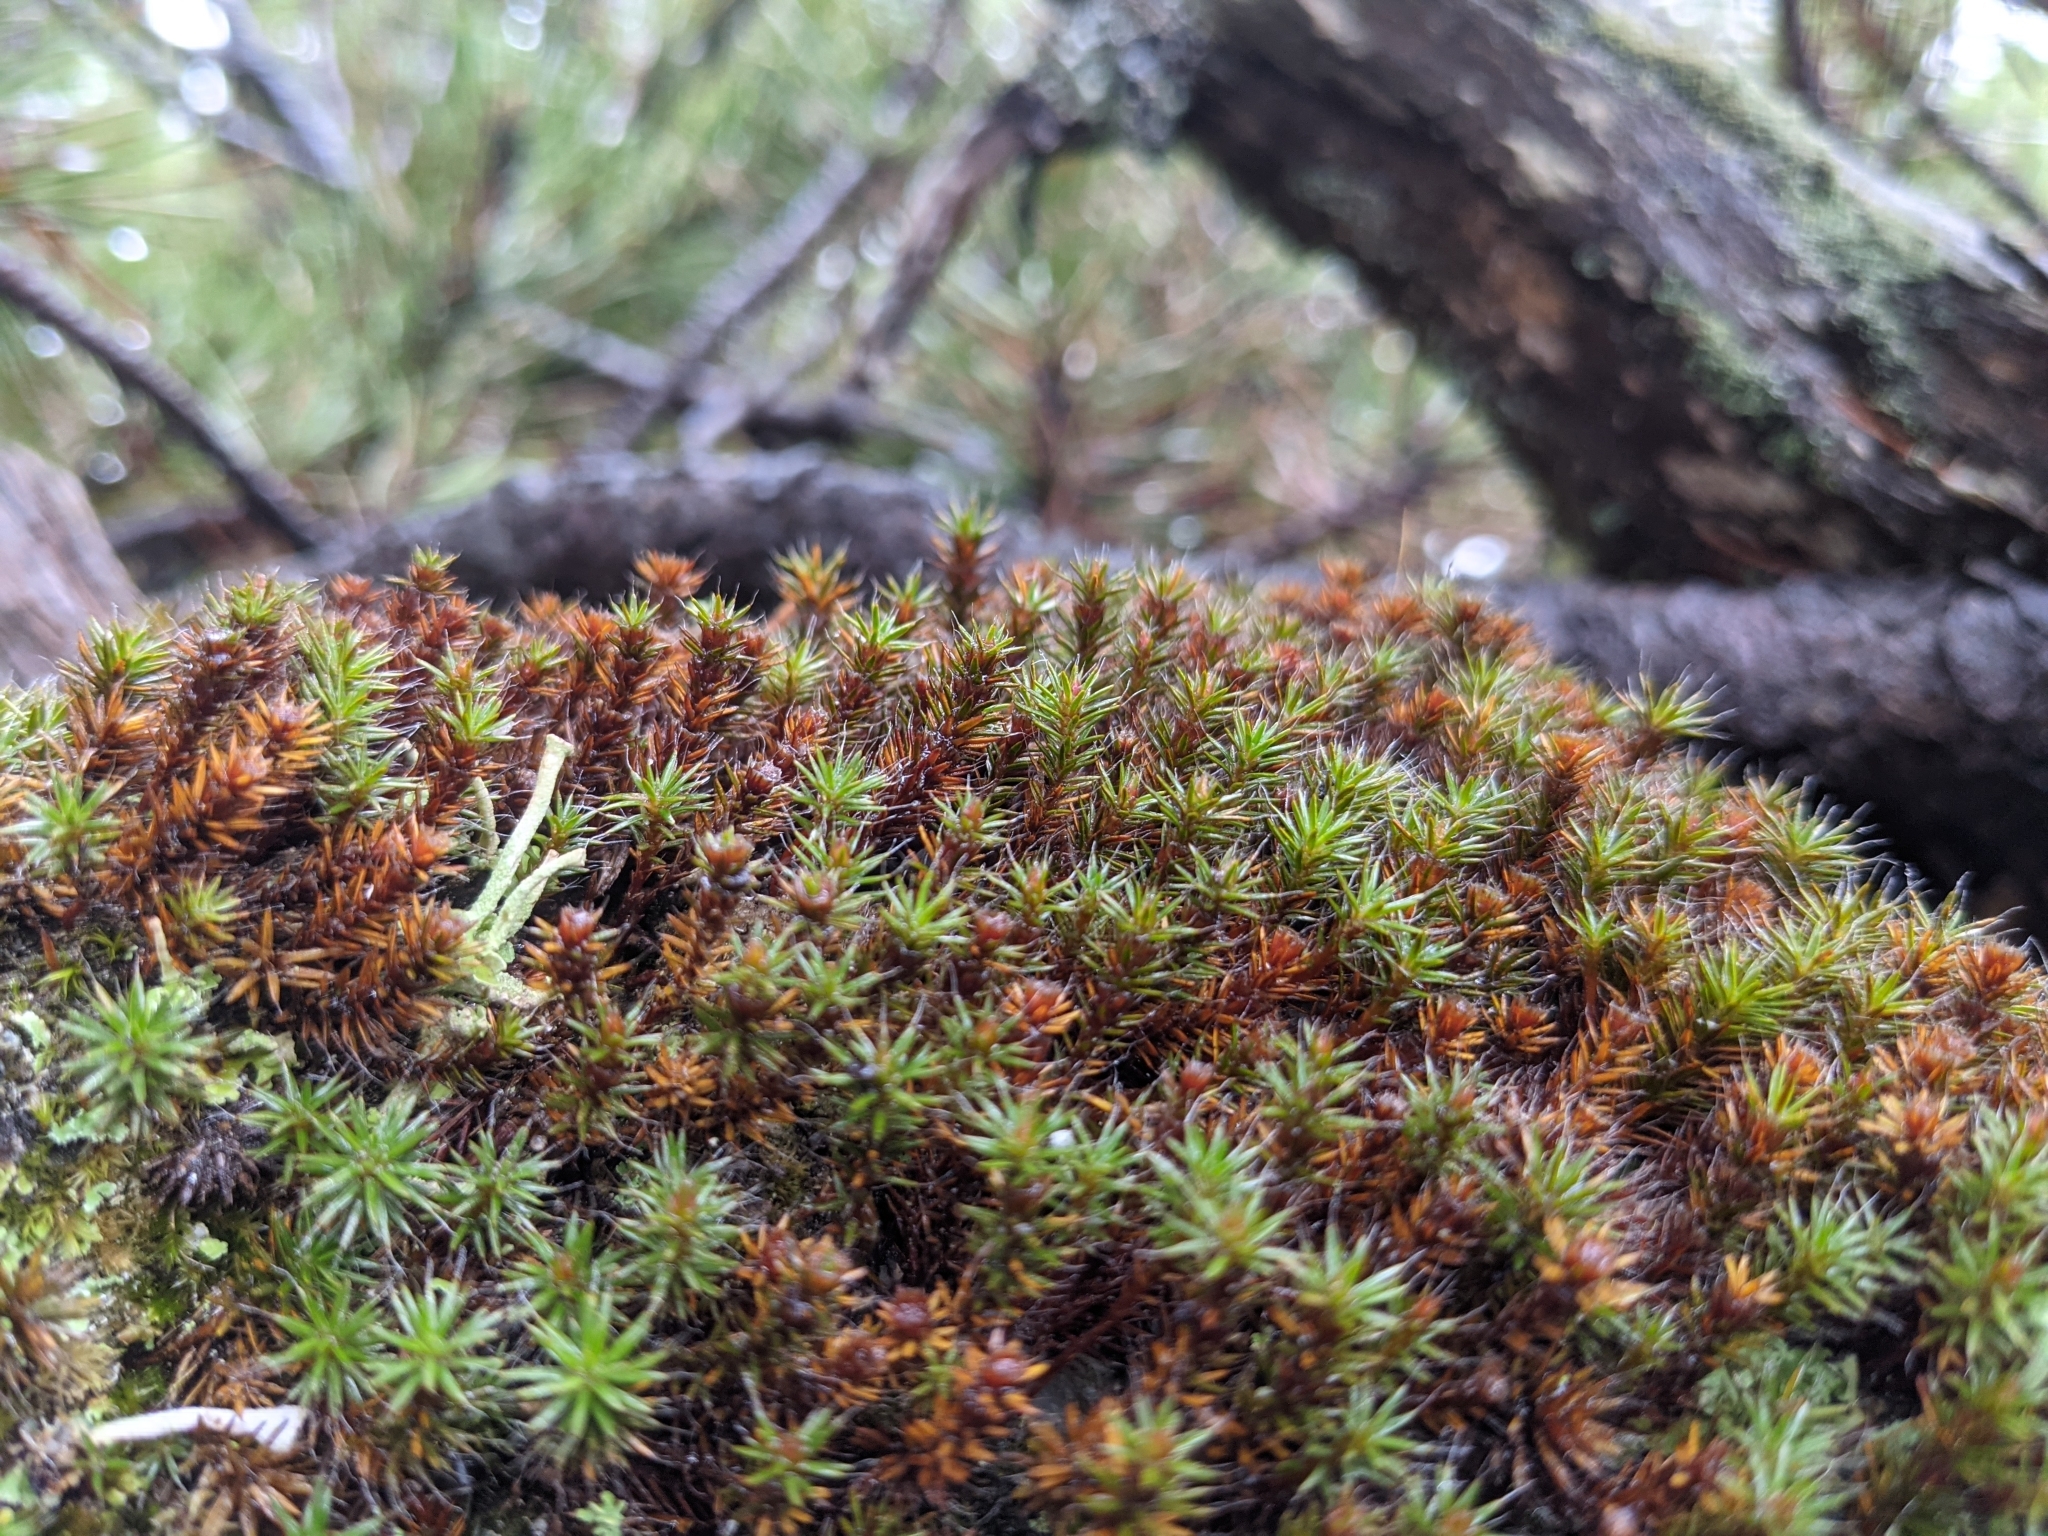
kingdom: Plantae
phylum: Bryophyta
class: Polytrichopsida
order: Polytrichales
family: Polytrichaceae
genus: Polytrichum
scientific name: Polytrichum piliferum
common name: Bristly haircap
